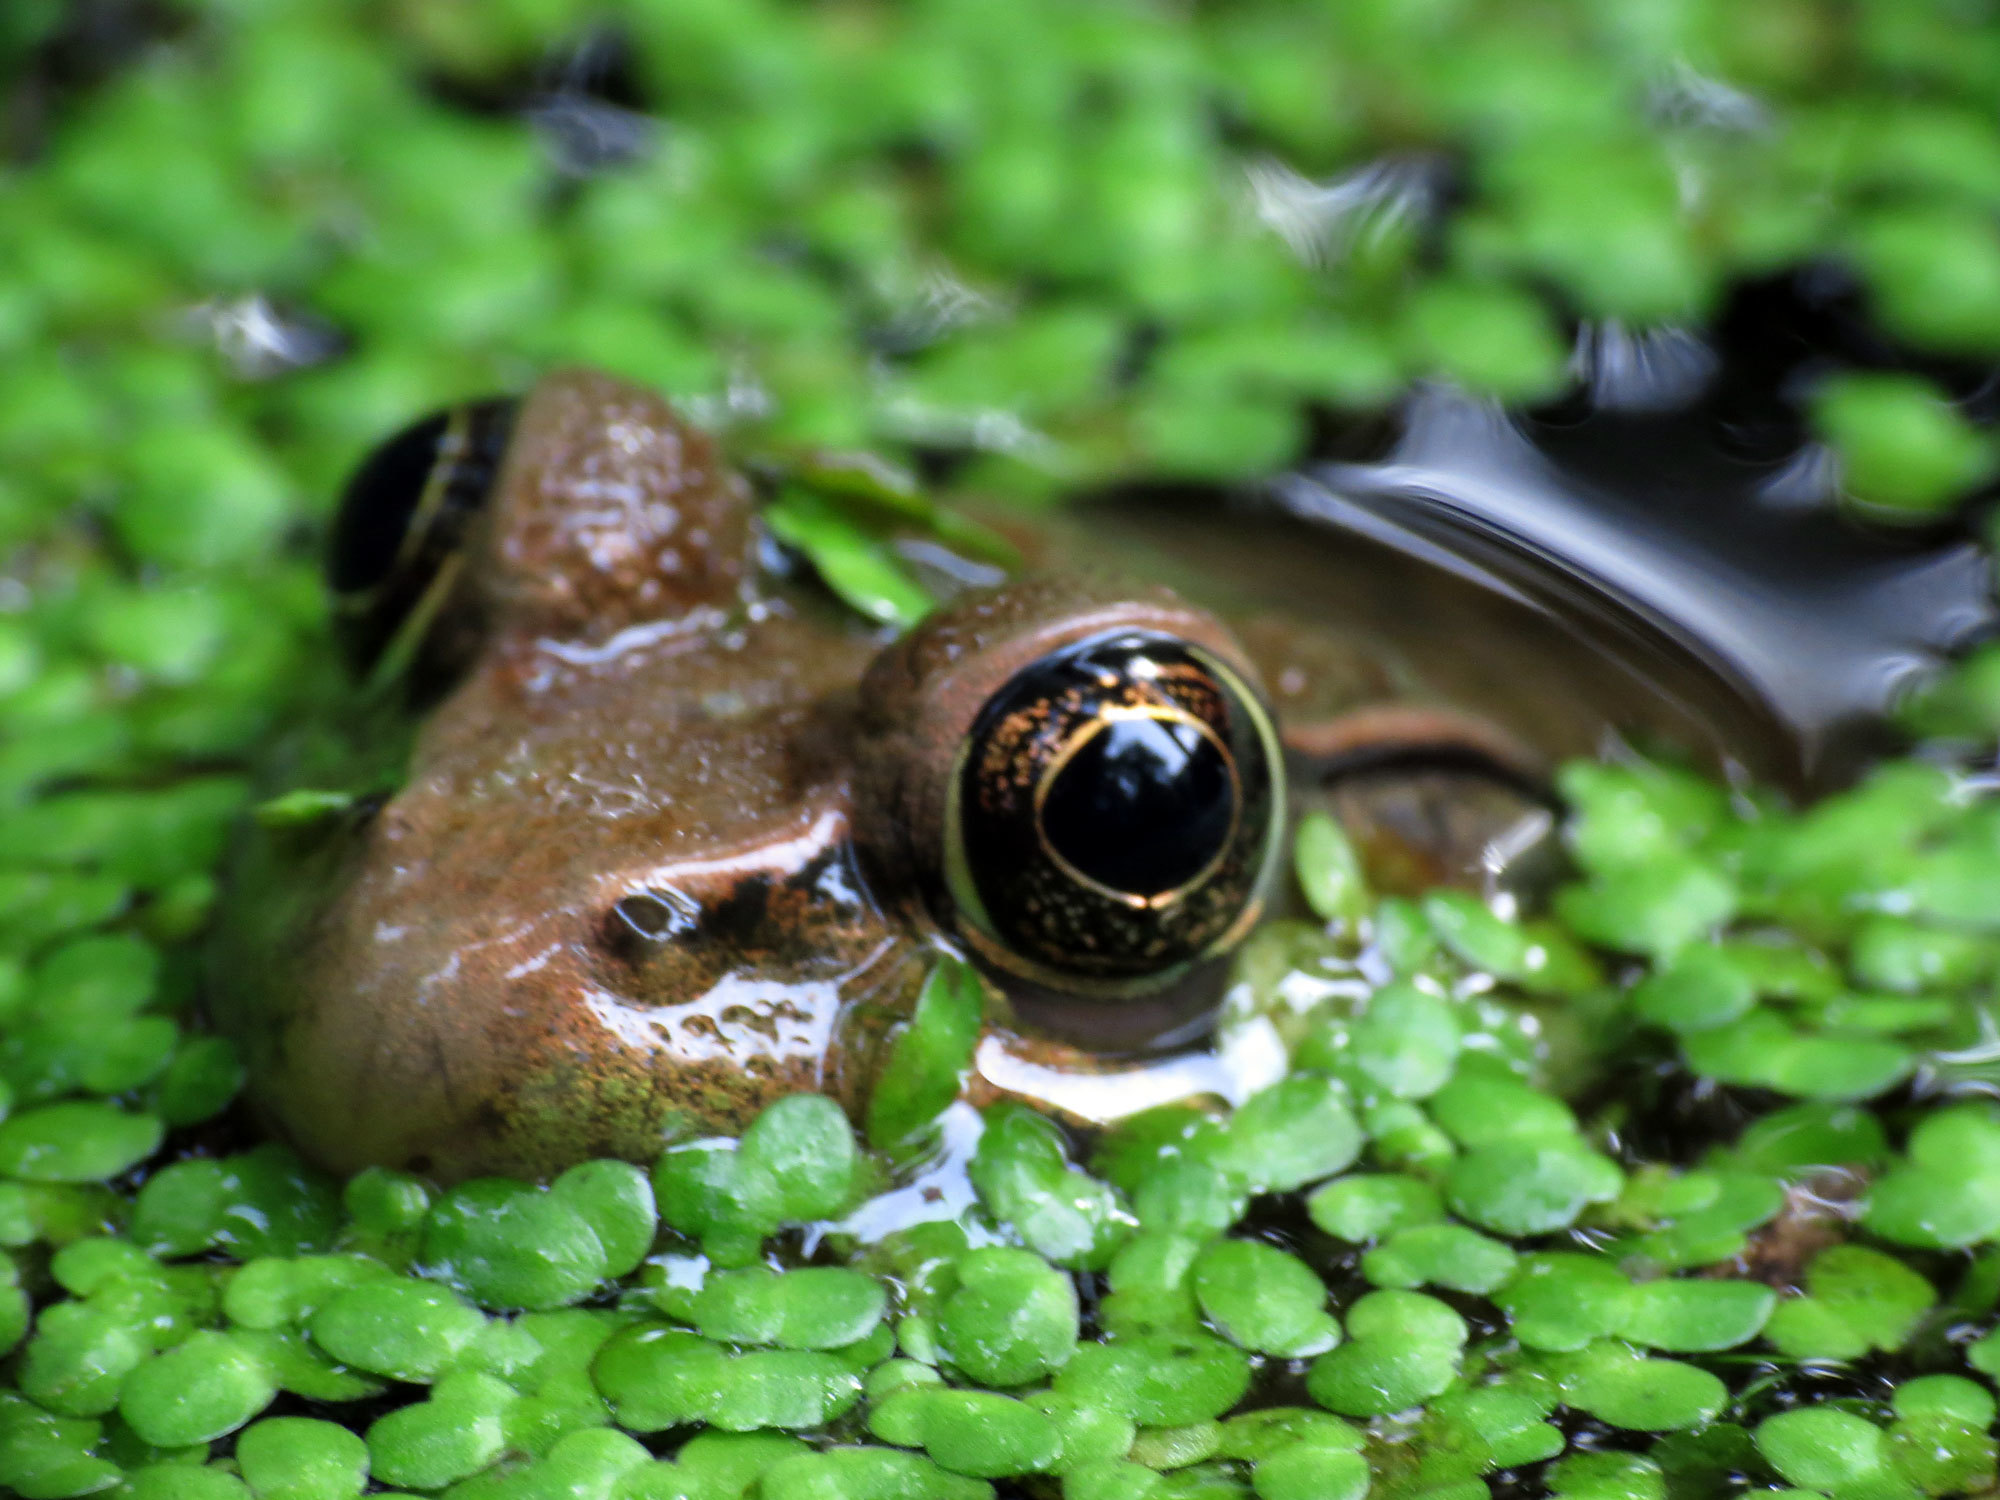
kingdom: Animalia
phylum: Chordata
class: Amphibia
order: Anura
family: Ranidae
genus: Lithobates
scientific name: Lithobates clamitans
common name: Green frog
